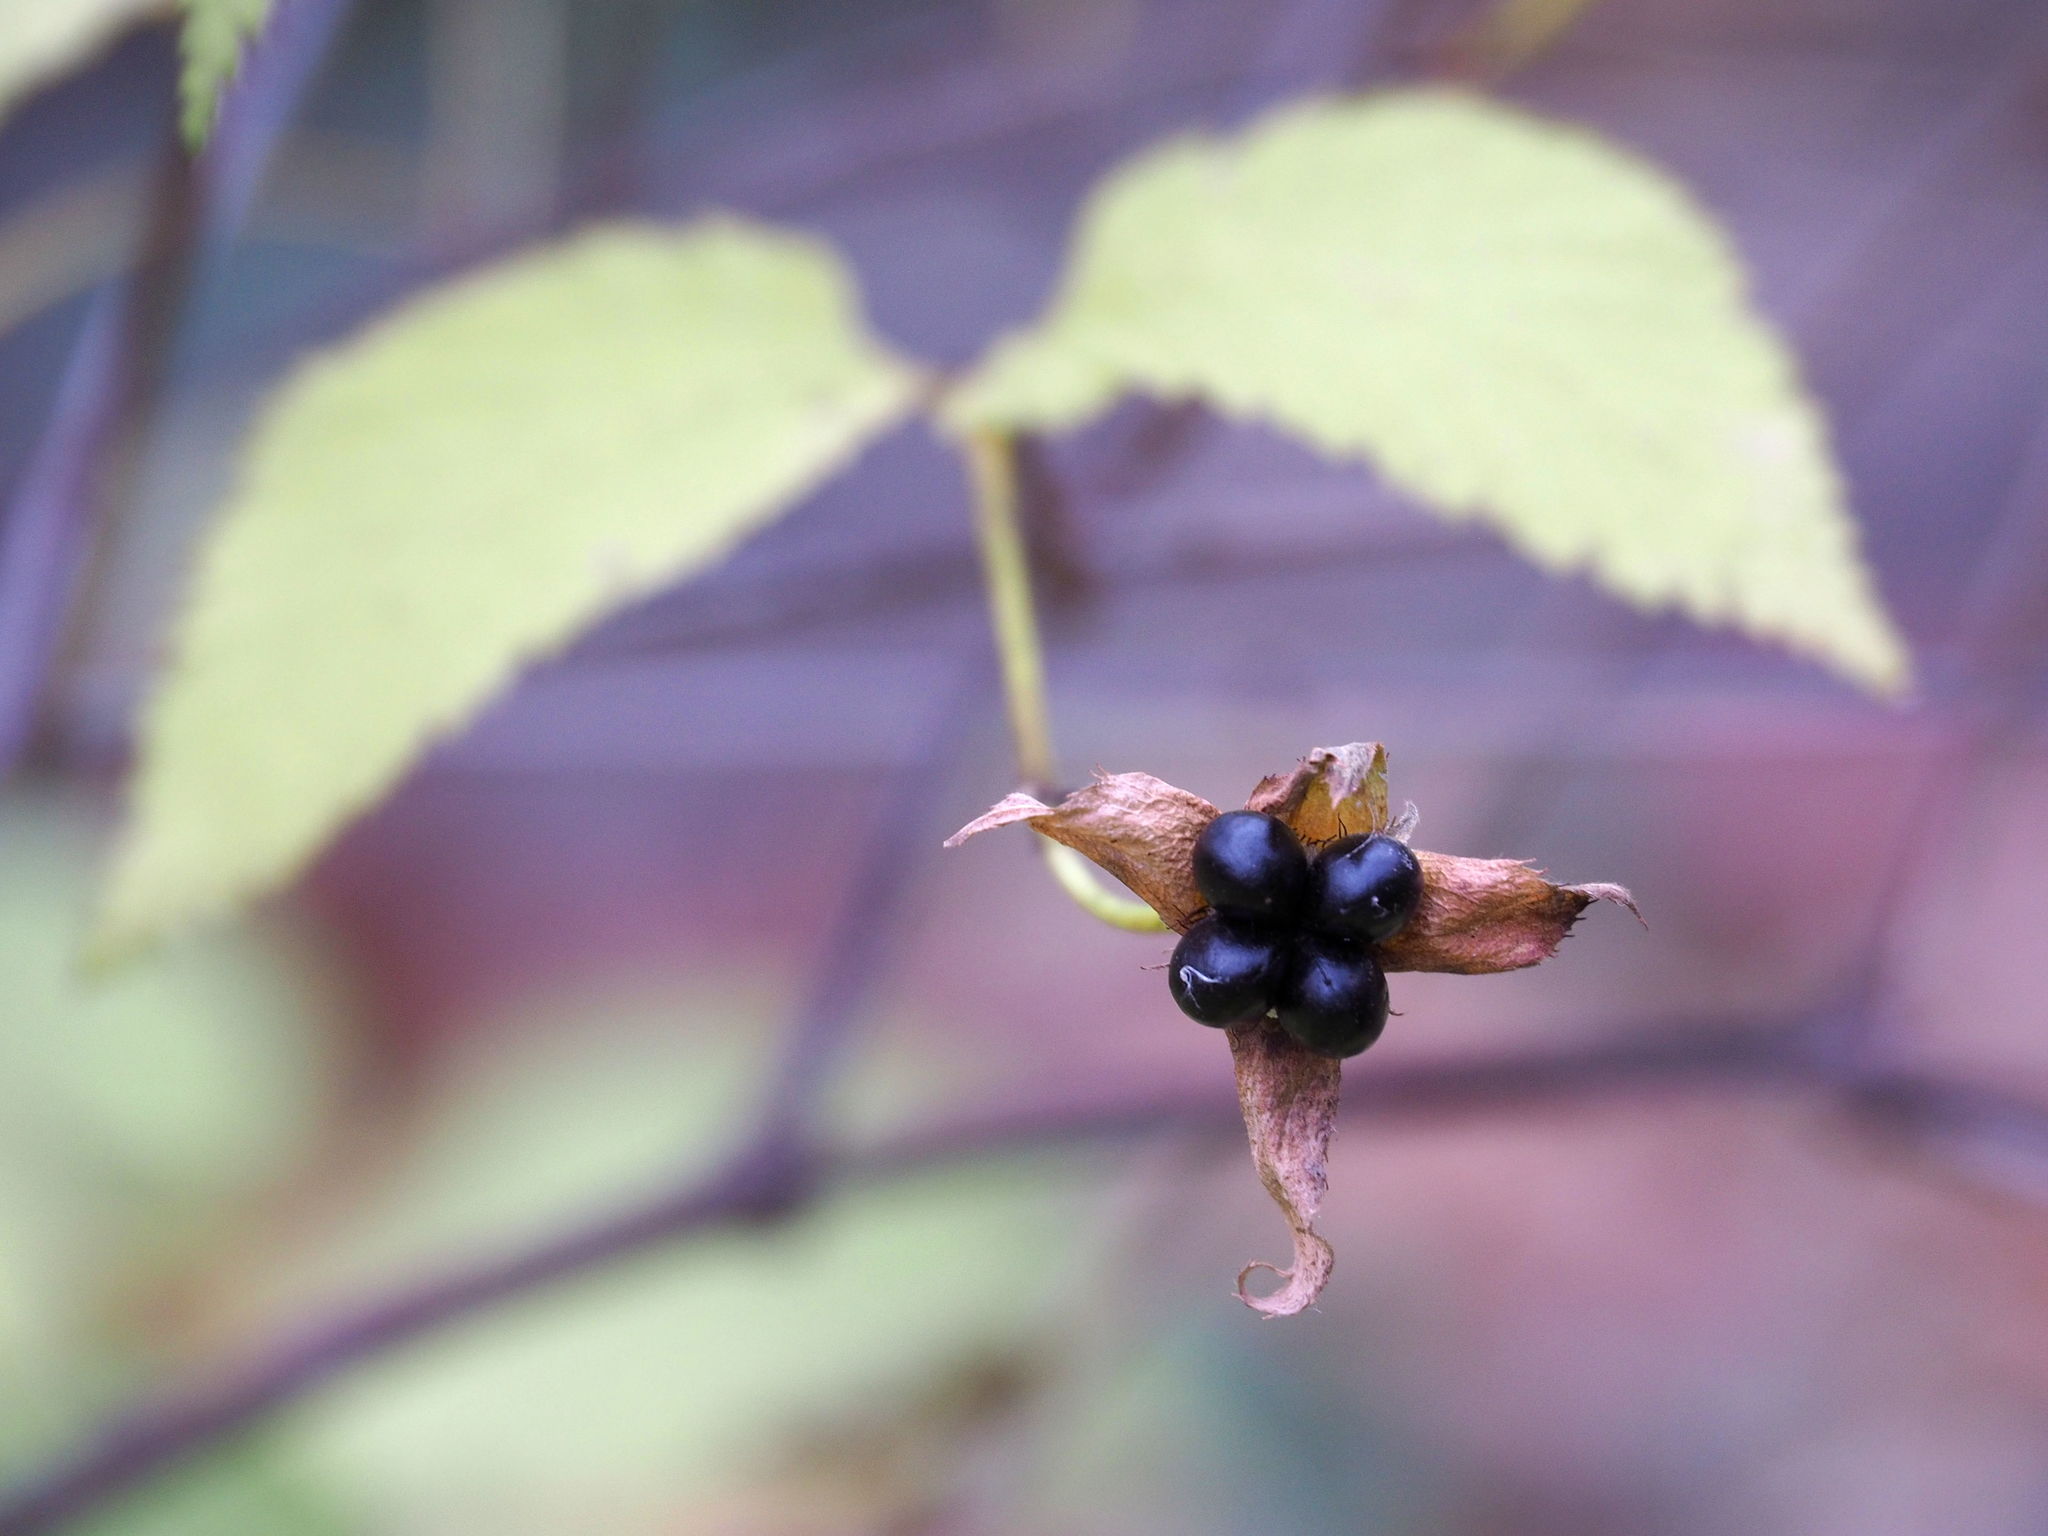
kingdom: Plantae
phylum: Tracheophyta
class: Magnoliopsida
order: Rosales
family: Rosaceae
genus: Rhodotypos
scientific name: Rhodotypos scandens
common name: Jetbead
